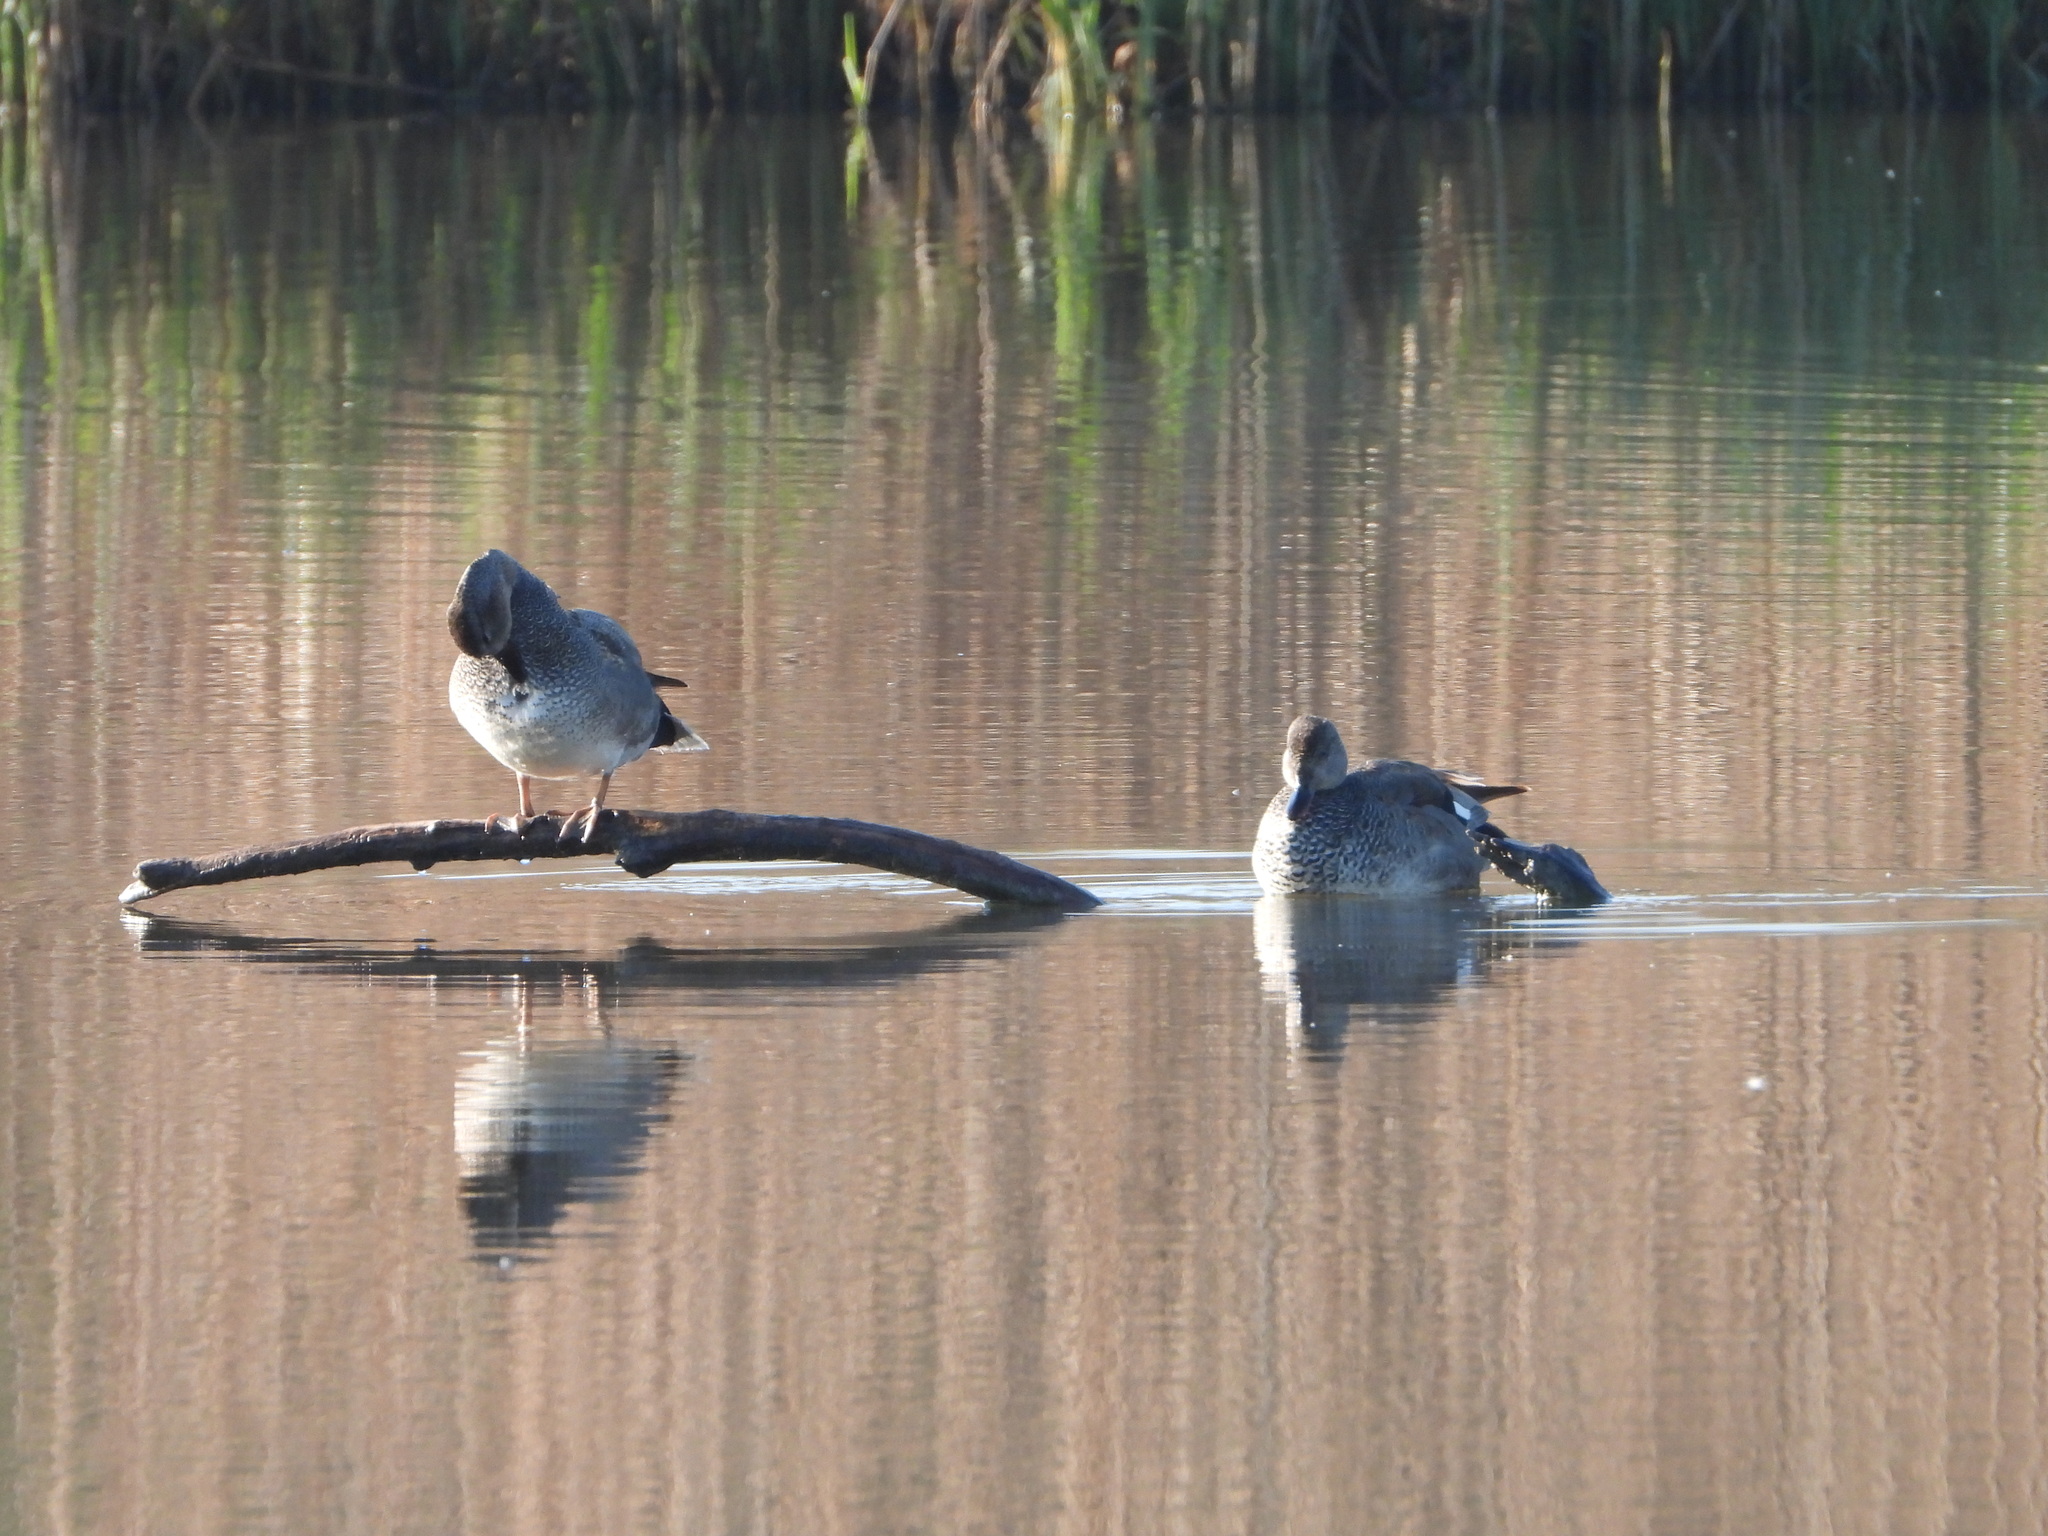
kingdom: Animalia
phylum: Chordata
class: Aves
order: Anseriformes
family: Anatidae
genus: Mareca
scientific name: Mareca strepera
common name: Gadwall
